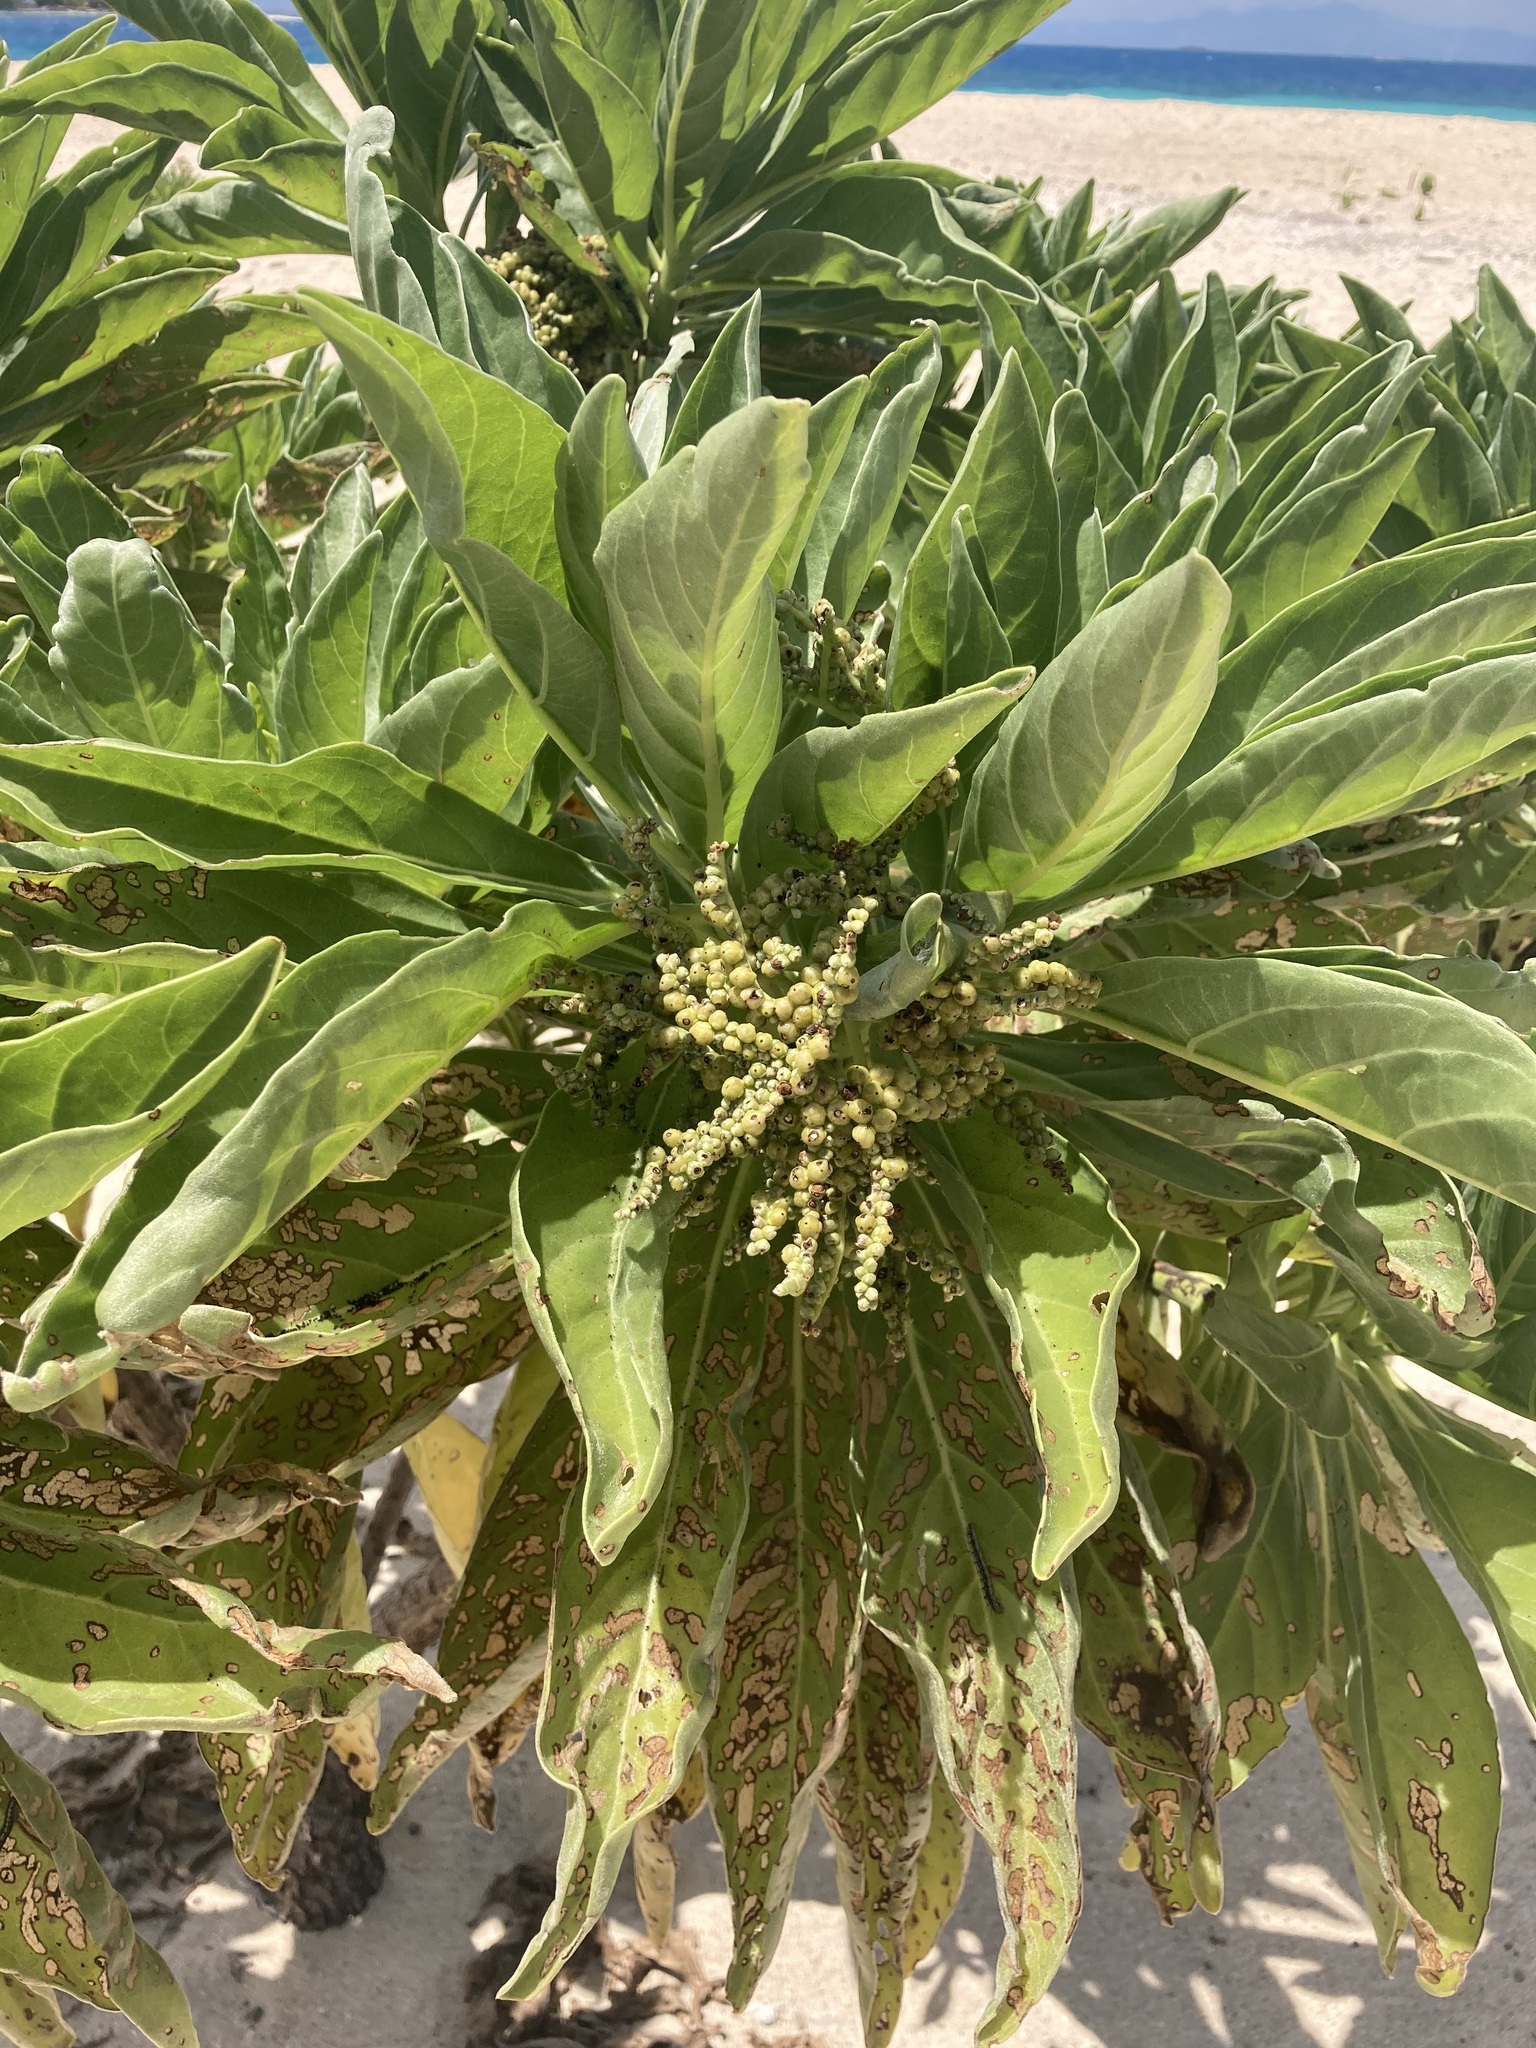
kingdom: Plantae
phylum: Tracheophyta
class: Magnoliopsida
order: Boraginales
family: Heliotropiaceae
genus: Heliotropium
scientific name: Heliotropium velutinum
